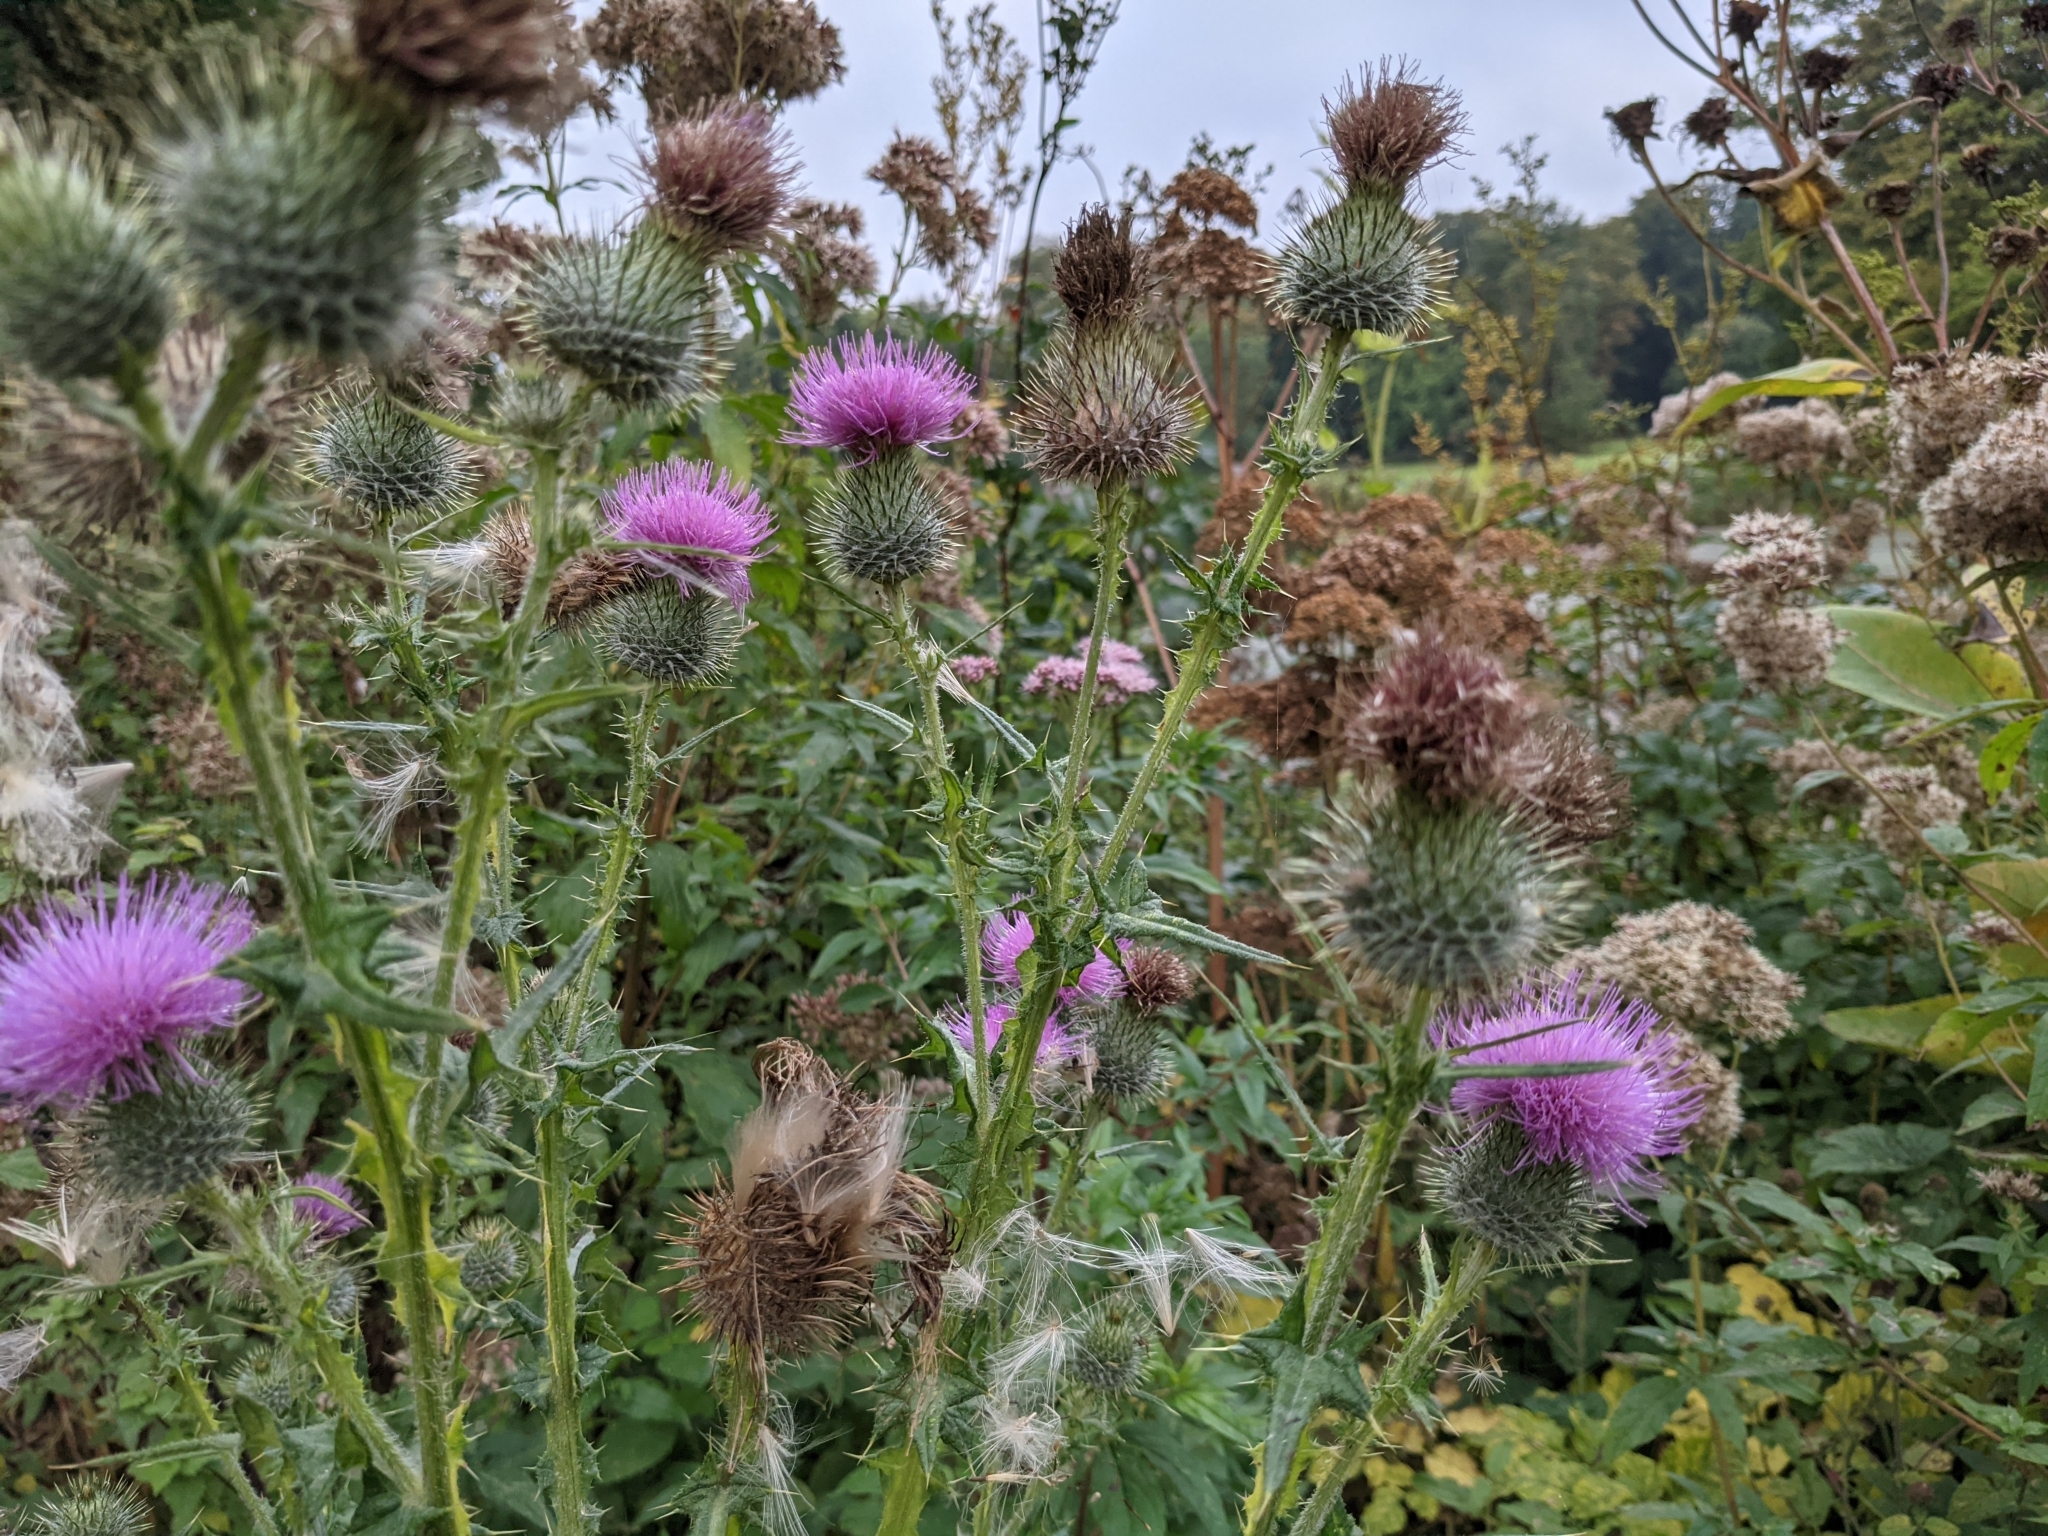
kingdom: Plantae
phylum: Tracheophyta
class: Magnoliopsida
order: Asterales
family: Asteraceae
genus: Cirsium
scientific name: Cirsium vulgare
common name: Bull thistle
